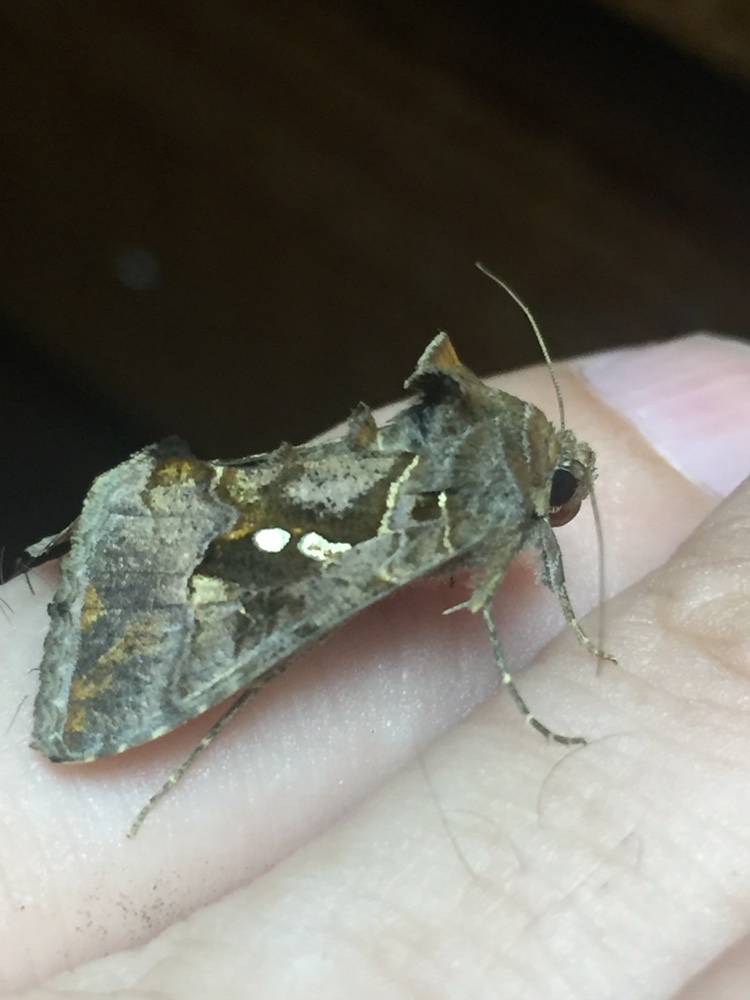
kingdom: Animalia
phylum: Arthropoda
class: Insecta
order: Lepidoptera
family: Noctuidae
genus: Chrysodeixis
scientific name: Chrysodeixis eriosoma
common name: Green garden looper
